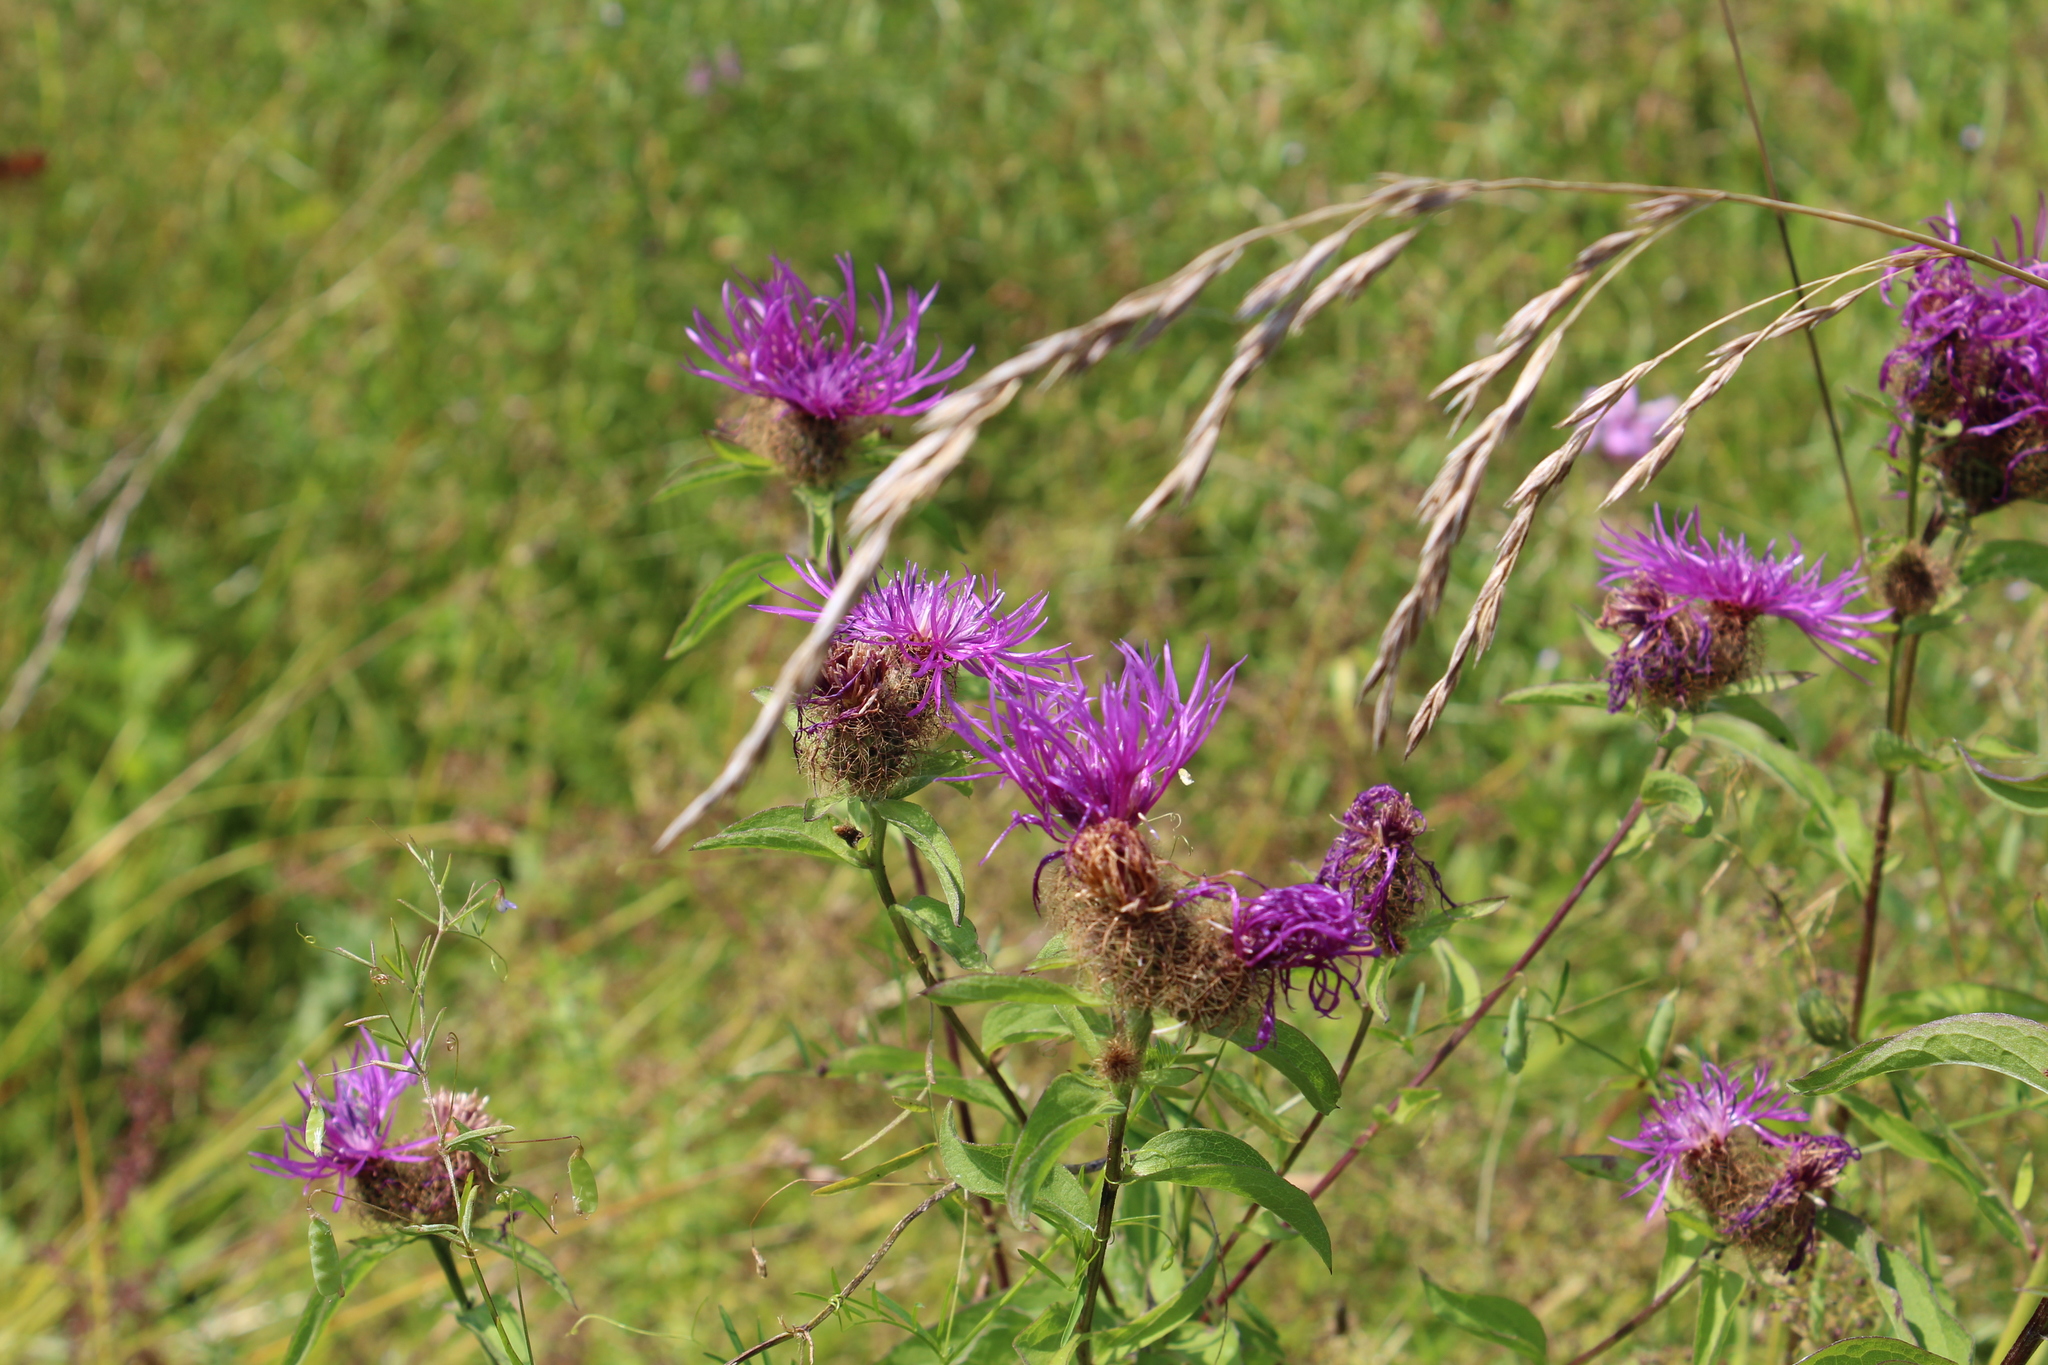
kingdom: Plantae
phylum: Tracheophyta
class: Magnoliopsida
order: Asterales
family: Asteraceae
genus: Centaurea
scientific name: Centaurea pseudophrygia
